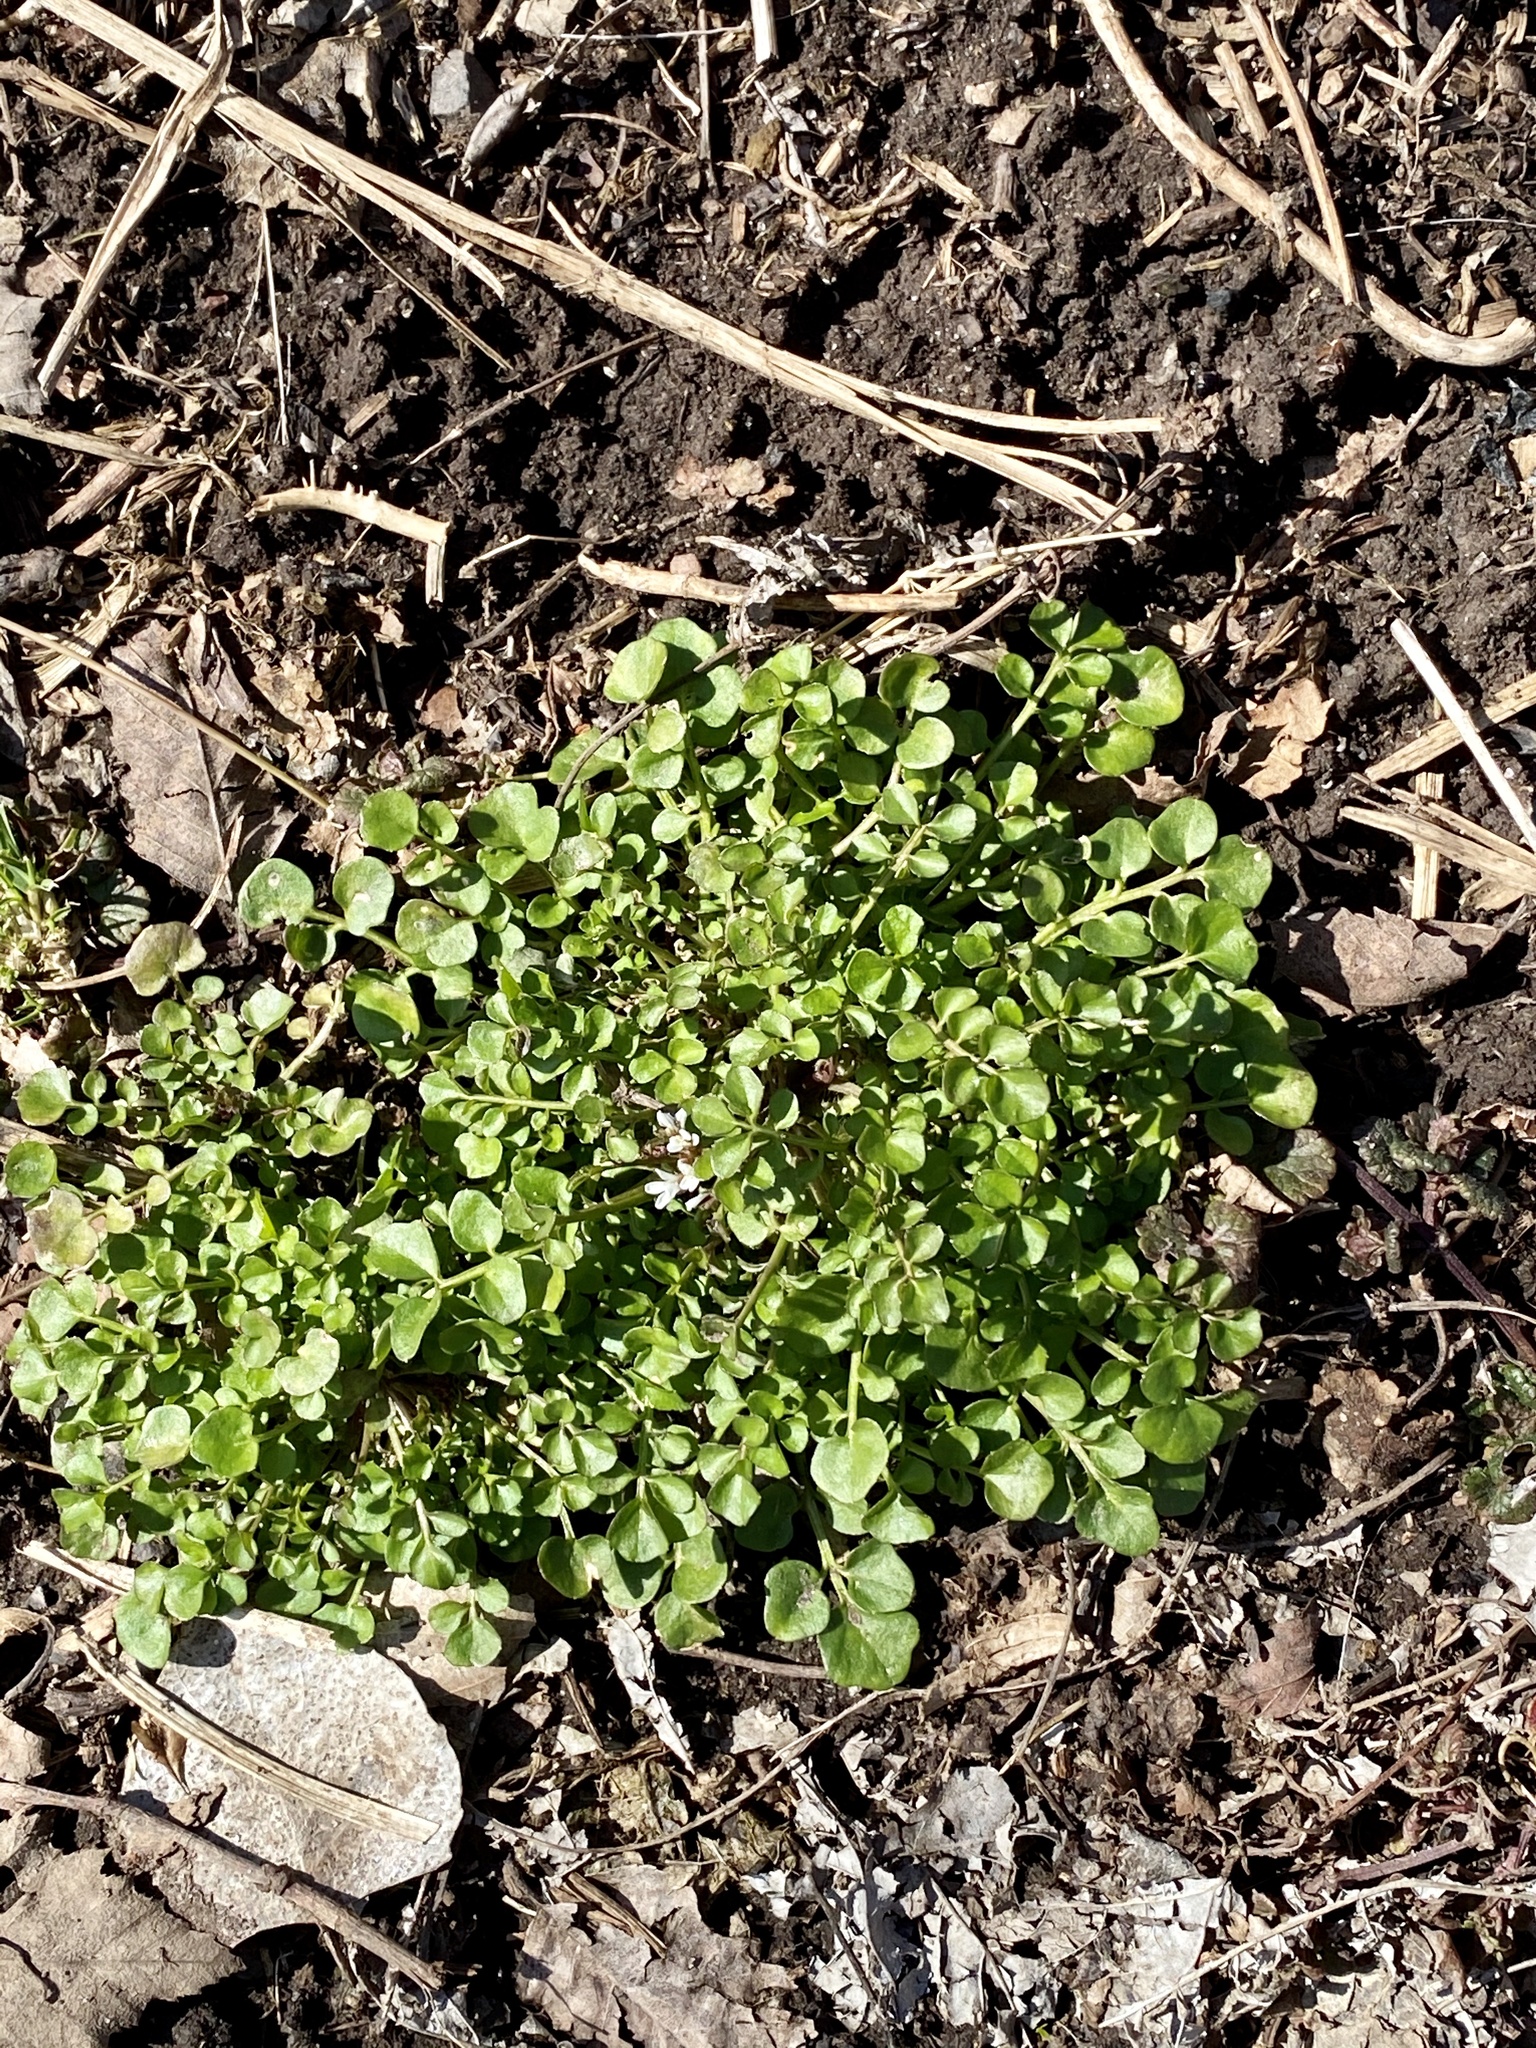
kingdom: Plantae
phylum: Tracheophyta
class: Magnoliopsida
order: Brassicales
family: Brassicaceae
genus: Cardamine
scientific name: Cardamine hirsuta
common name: Hairy bittercress
